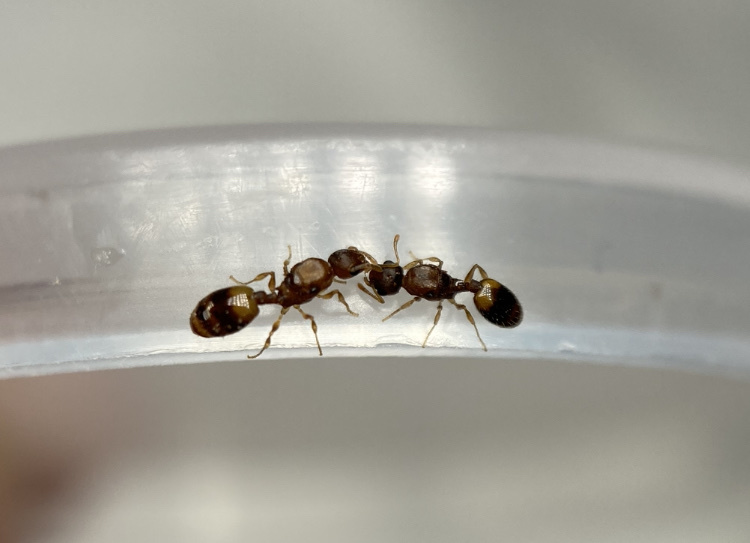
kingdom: Animalia
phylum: Arthropoda
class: Insecta
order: Hymenoptera
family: Formicidae
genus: Temnothorax
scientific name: Temnothorax
